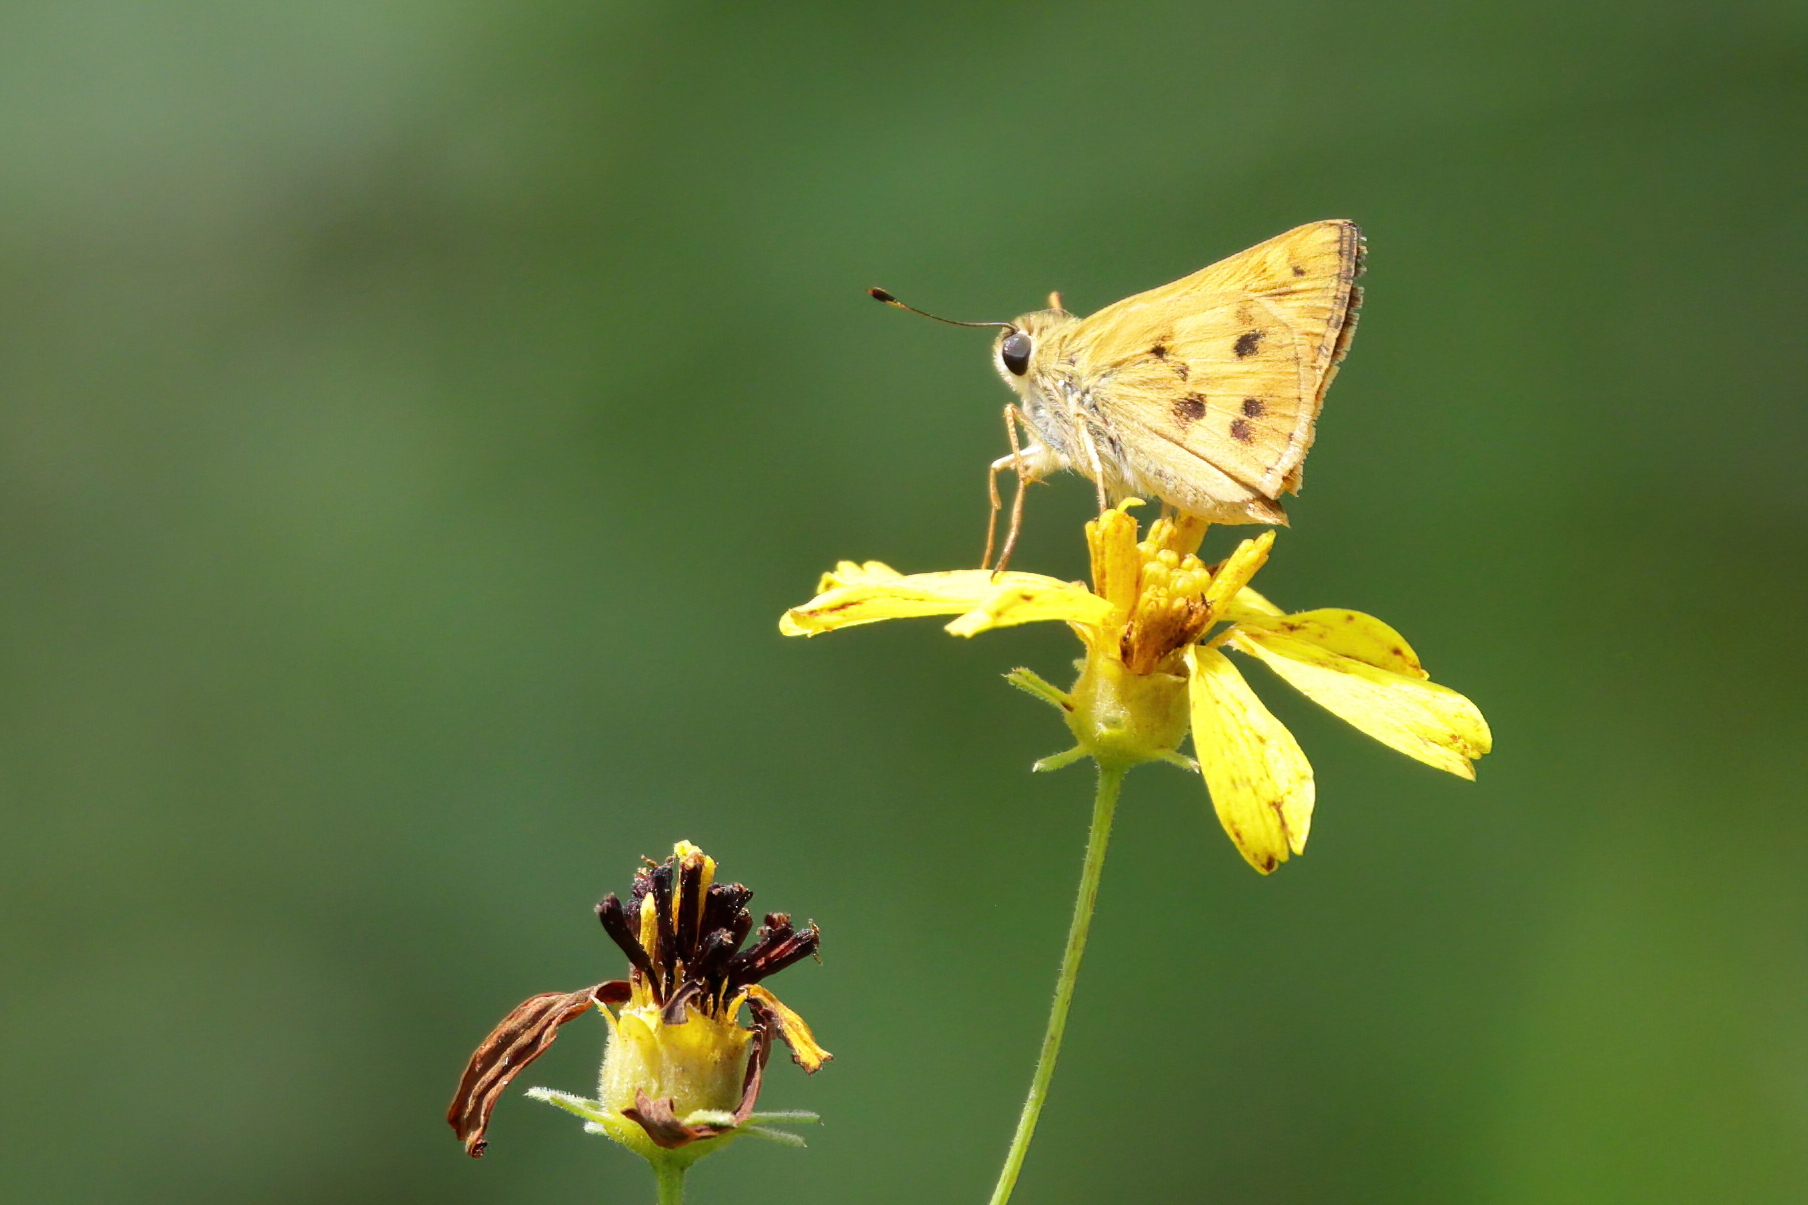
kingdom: Animalia
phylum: Arthropoda
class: Insecta
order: Lepidoptera
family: Hesperiidae
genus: Polites
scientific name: Polites vibex
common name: Whirlabout
